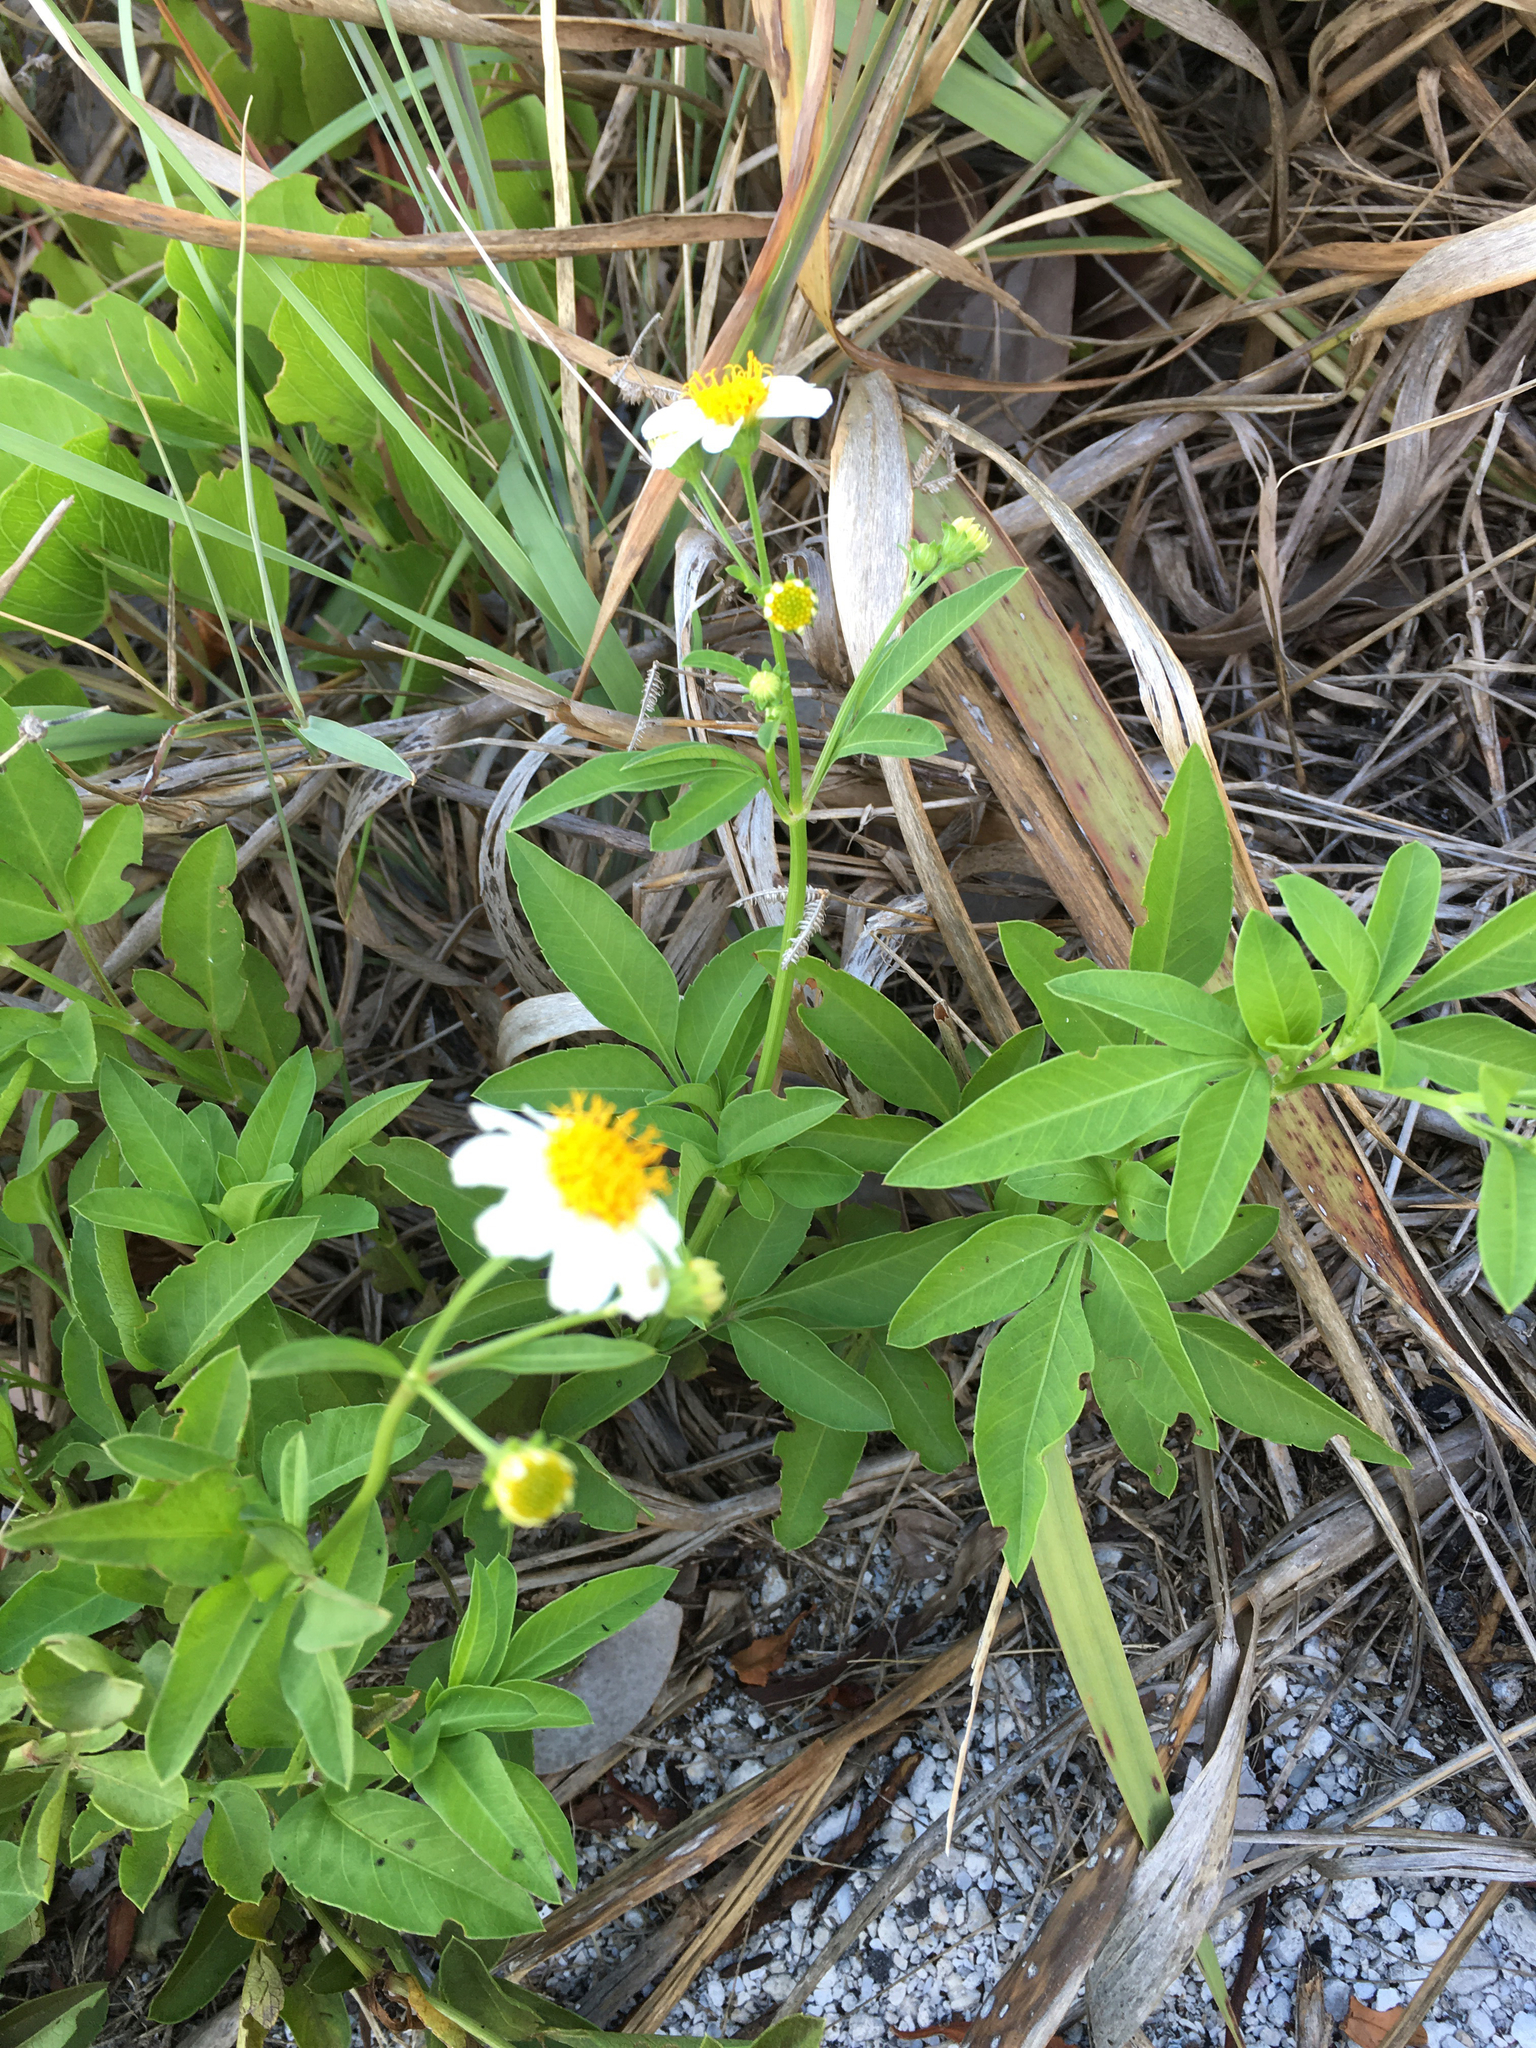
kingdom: Plantae
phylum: Tracheophyta
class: Magnoliopsida
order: Asterales
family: Asteraceae
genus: Bidens
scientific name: Bidens alba
